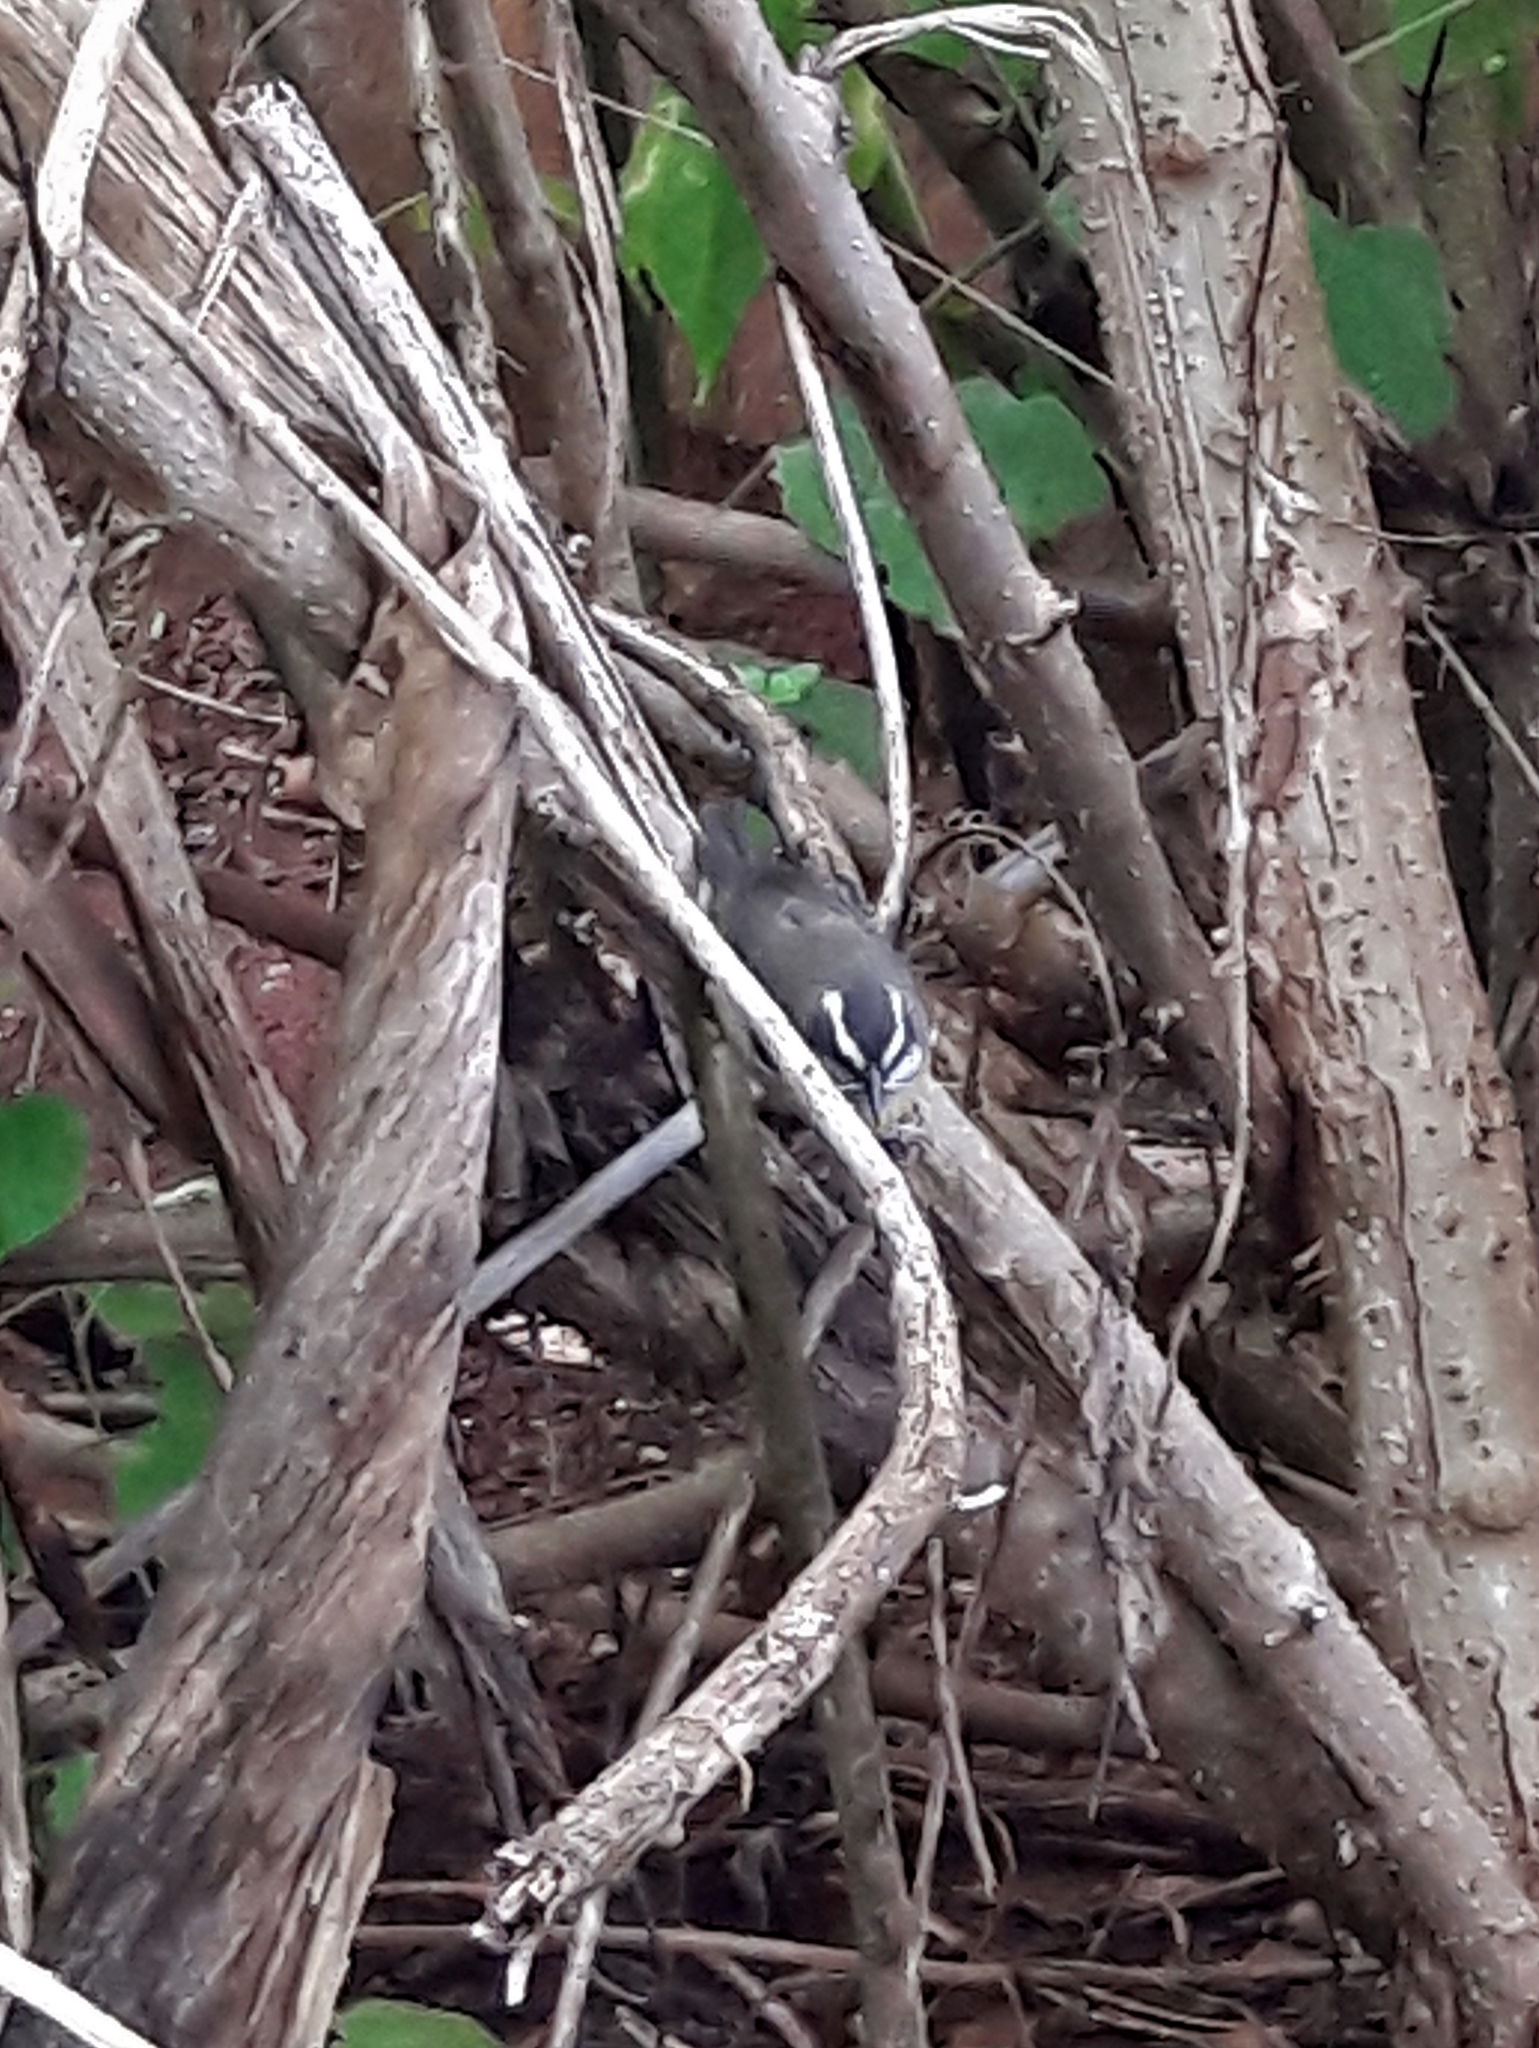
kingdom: Animalia
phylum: Chordata
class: Aves
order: Passeriformes
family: Thraupidae
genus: Coereba
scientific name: Coereba flaveola
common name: Bananaquit
